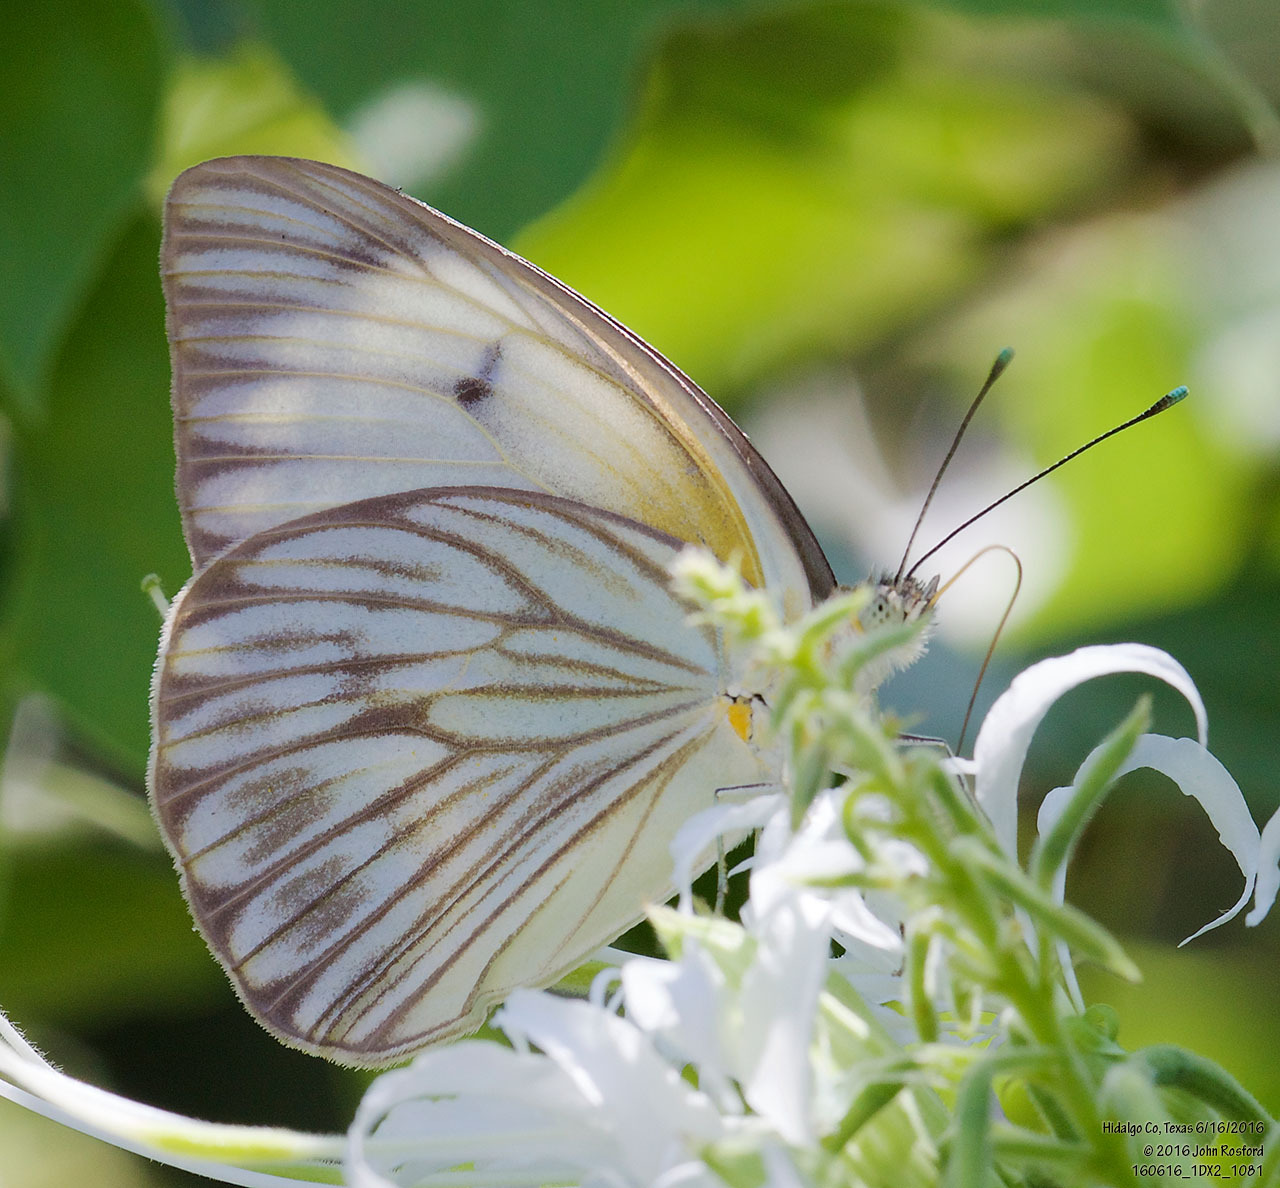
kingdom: Animalia
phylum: Arthropoda
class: Insecta
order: Lepidoptera
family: Pieridae
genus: Ascia
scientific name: Ascia monuste
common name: Great southern white
